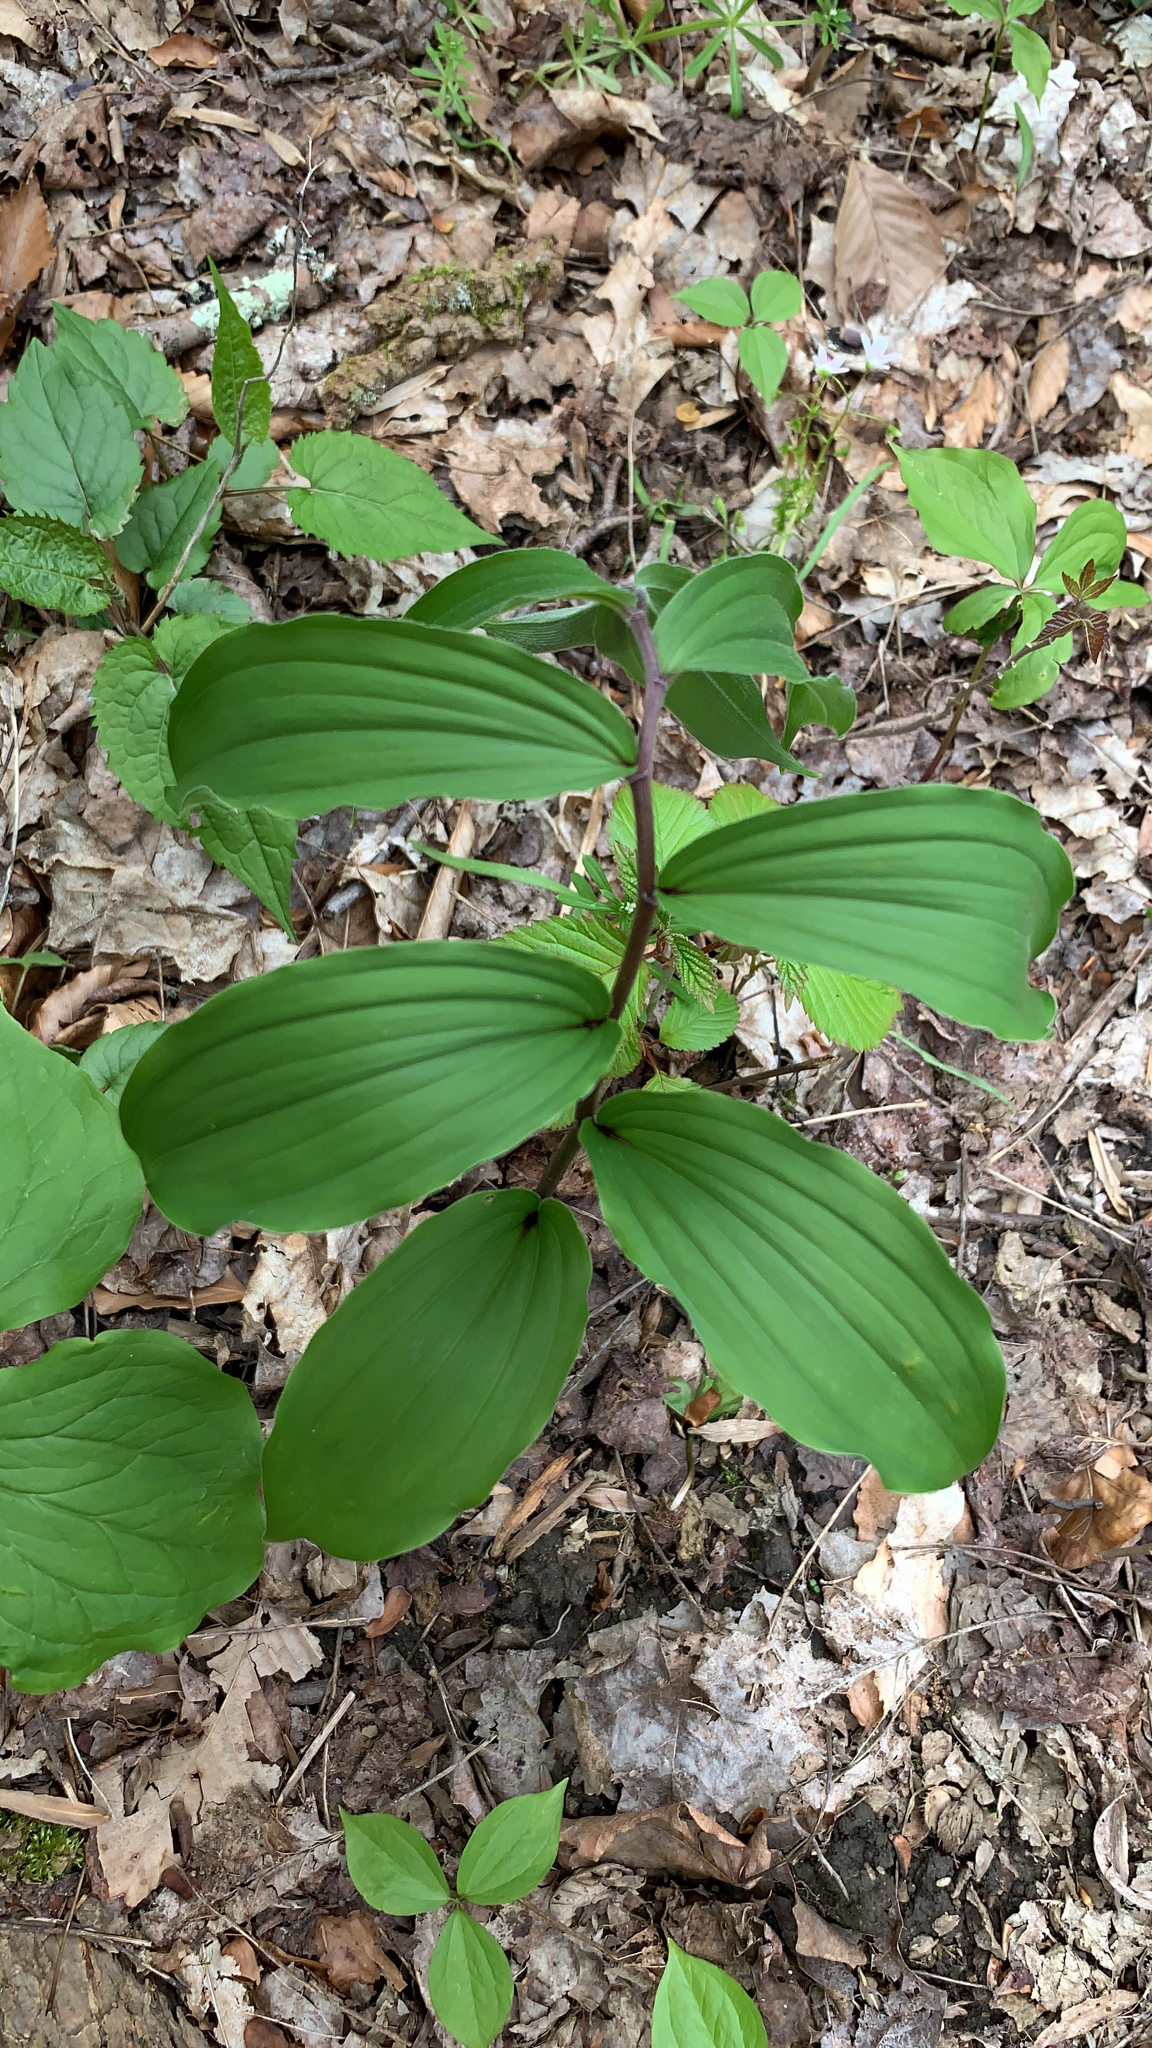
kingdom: Plantae
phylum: Tracheophyta
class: Liliopsida
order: Asparagales
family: Asparagaceae
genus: Maianthemum
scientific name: Maianthemum racemosum
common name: False spikenard
